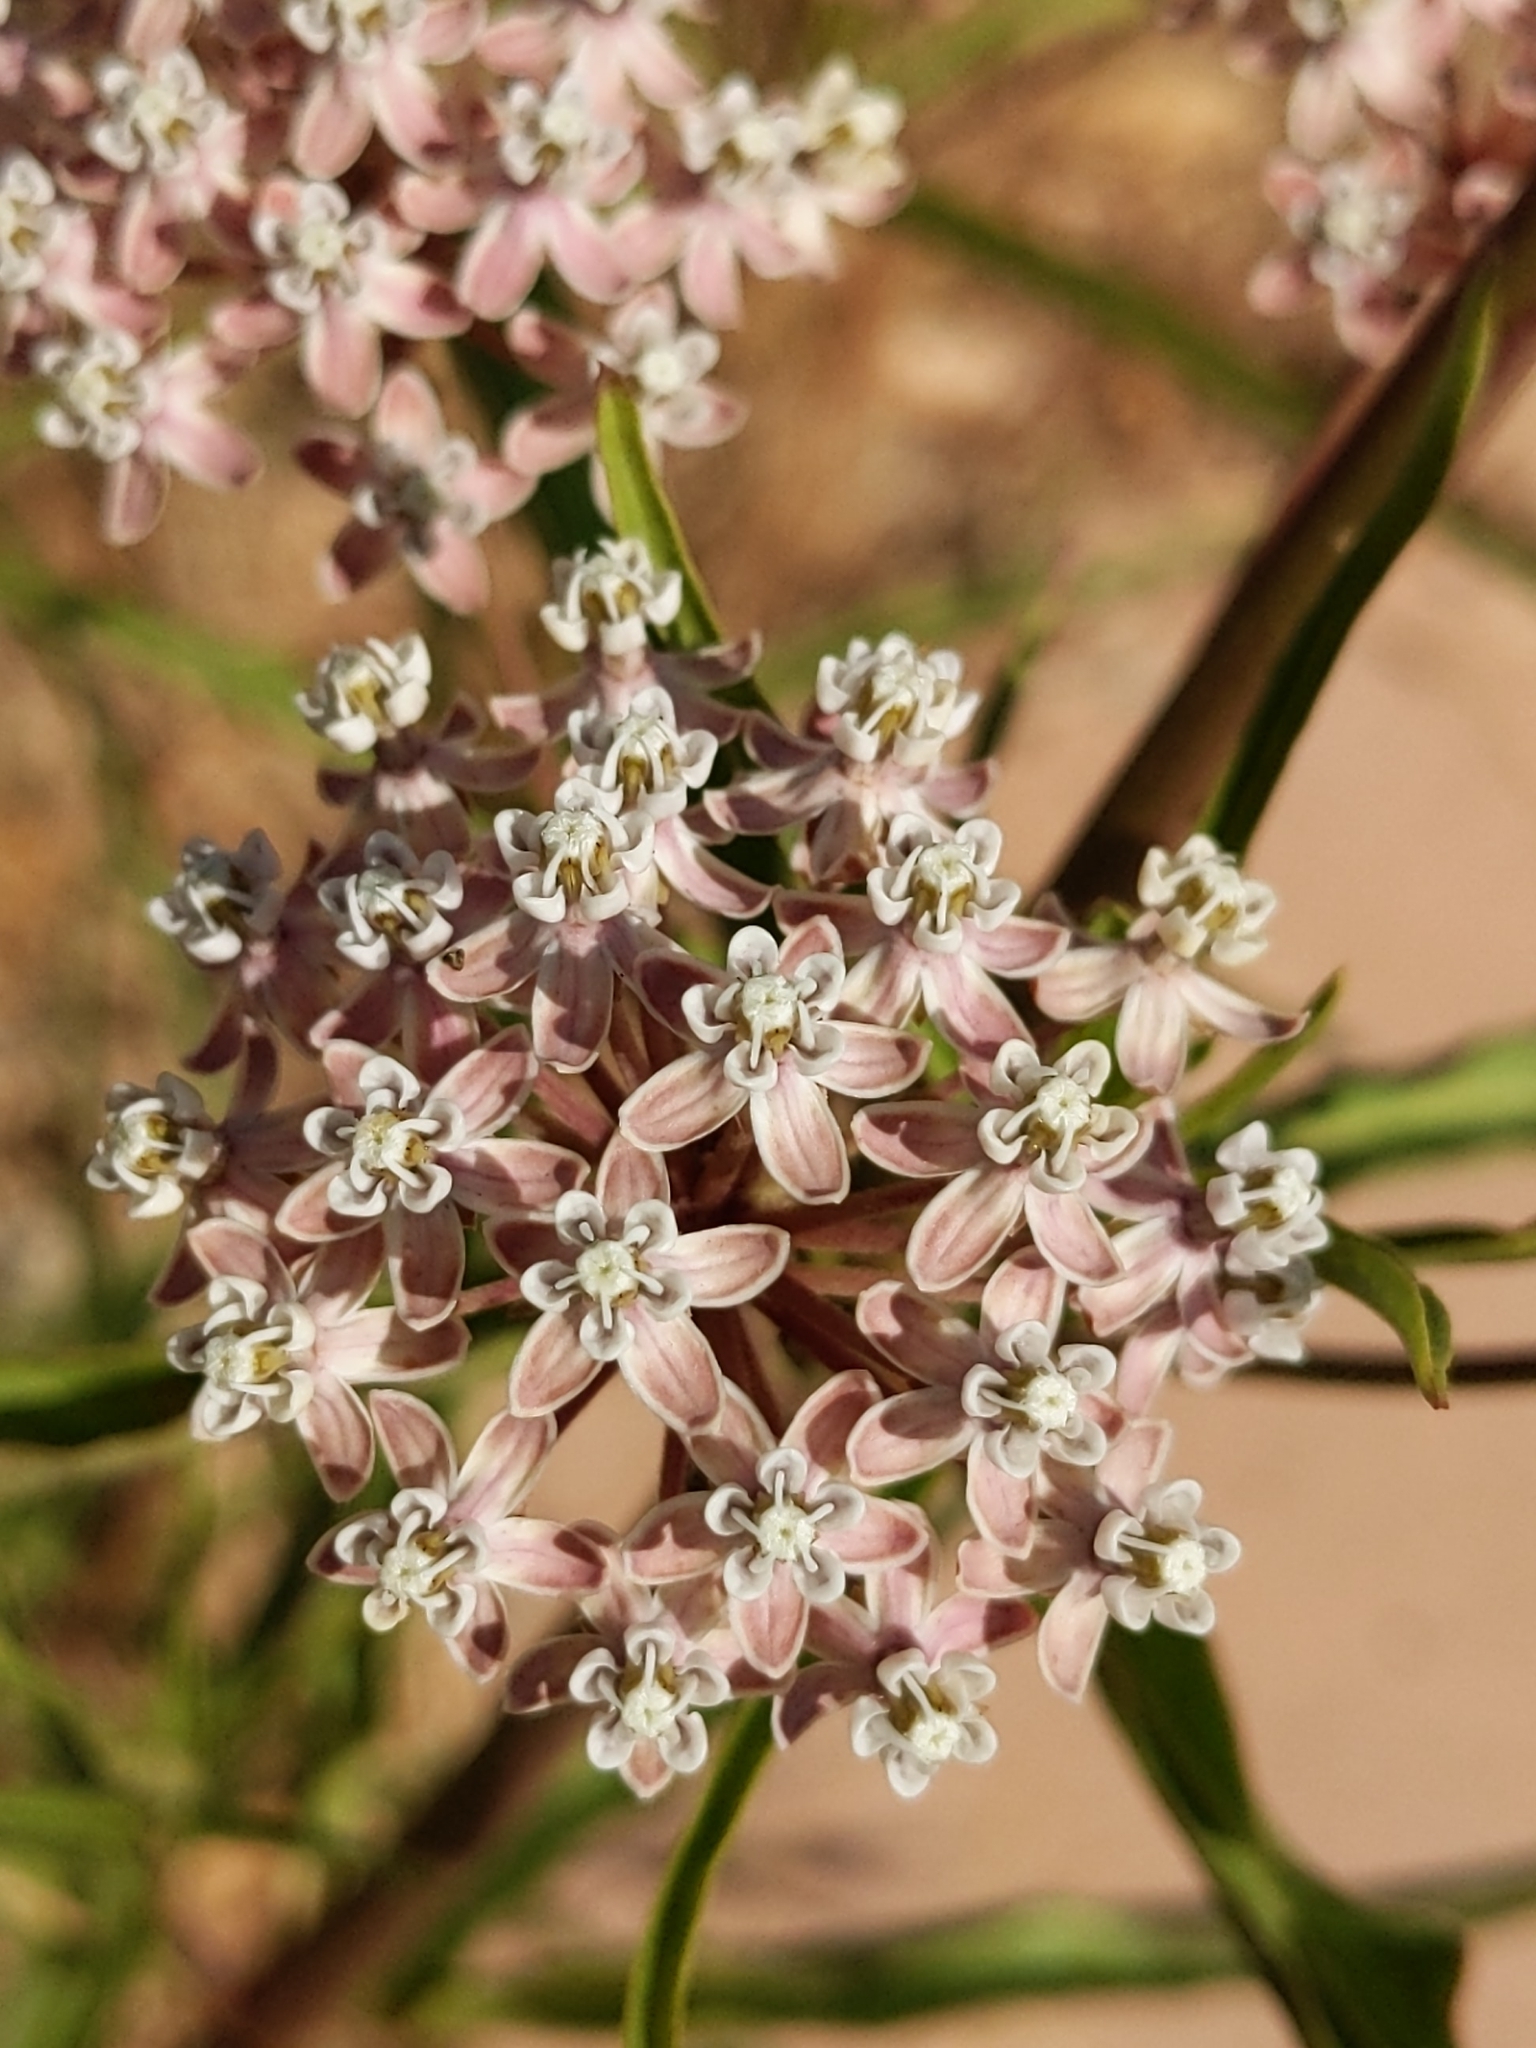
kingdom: Plantae
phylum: Tracheophyta
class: Magnoliopsida
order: Gentianales
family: Apocynaceae
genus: Asclepias
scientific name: Asclepias fascicularis
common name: Mexican milkweed
